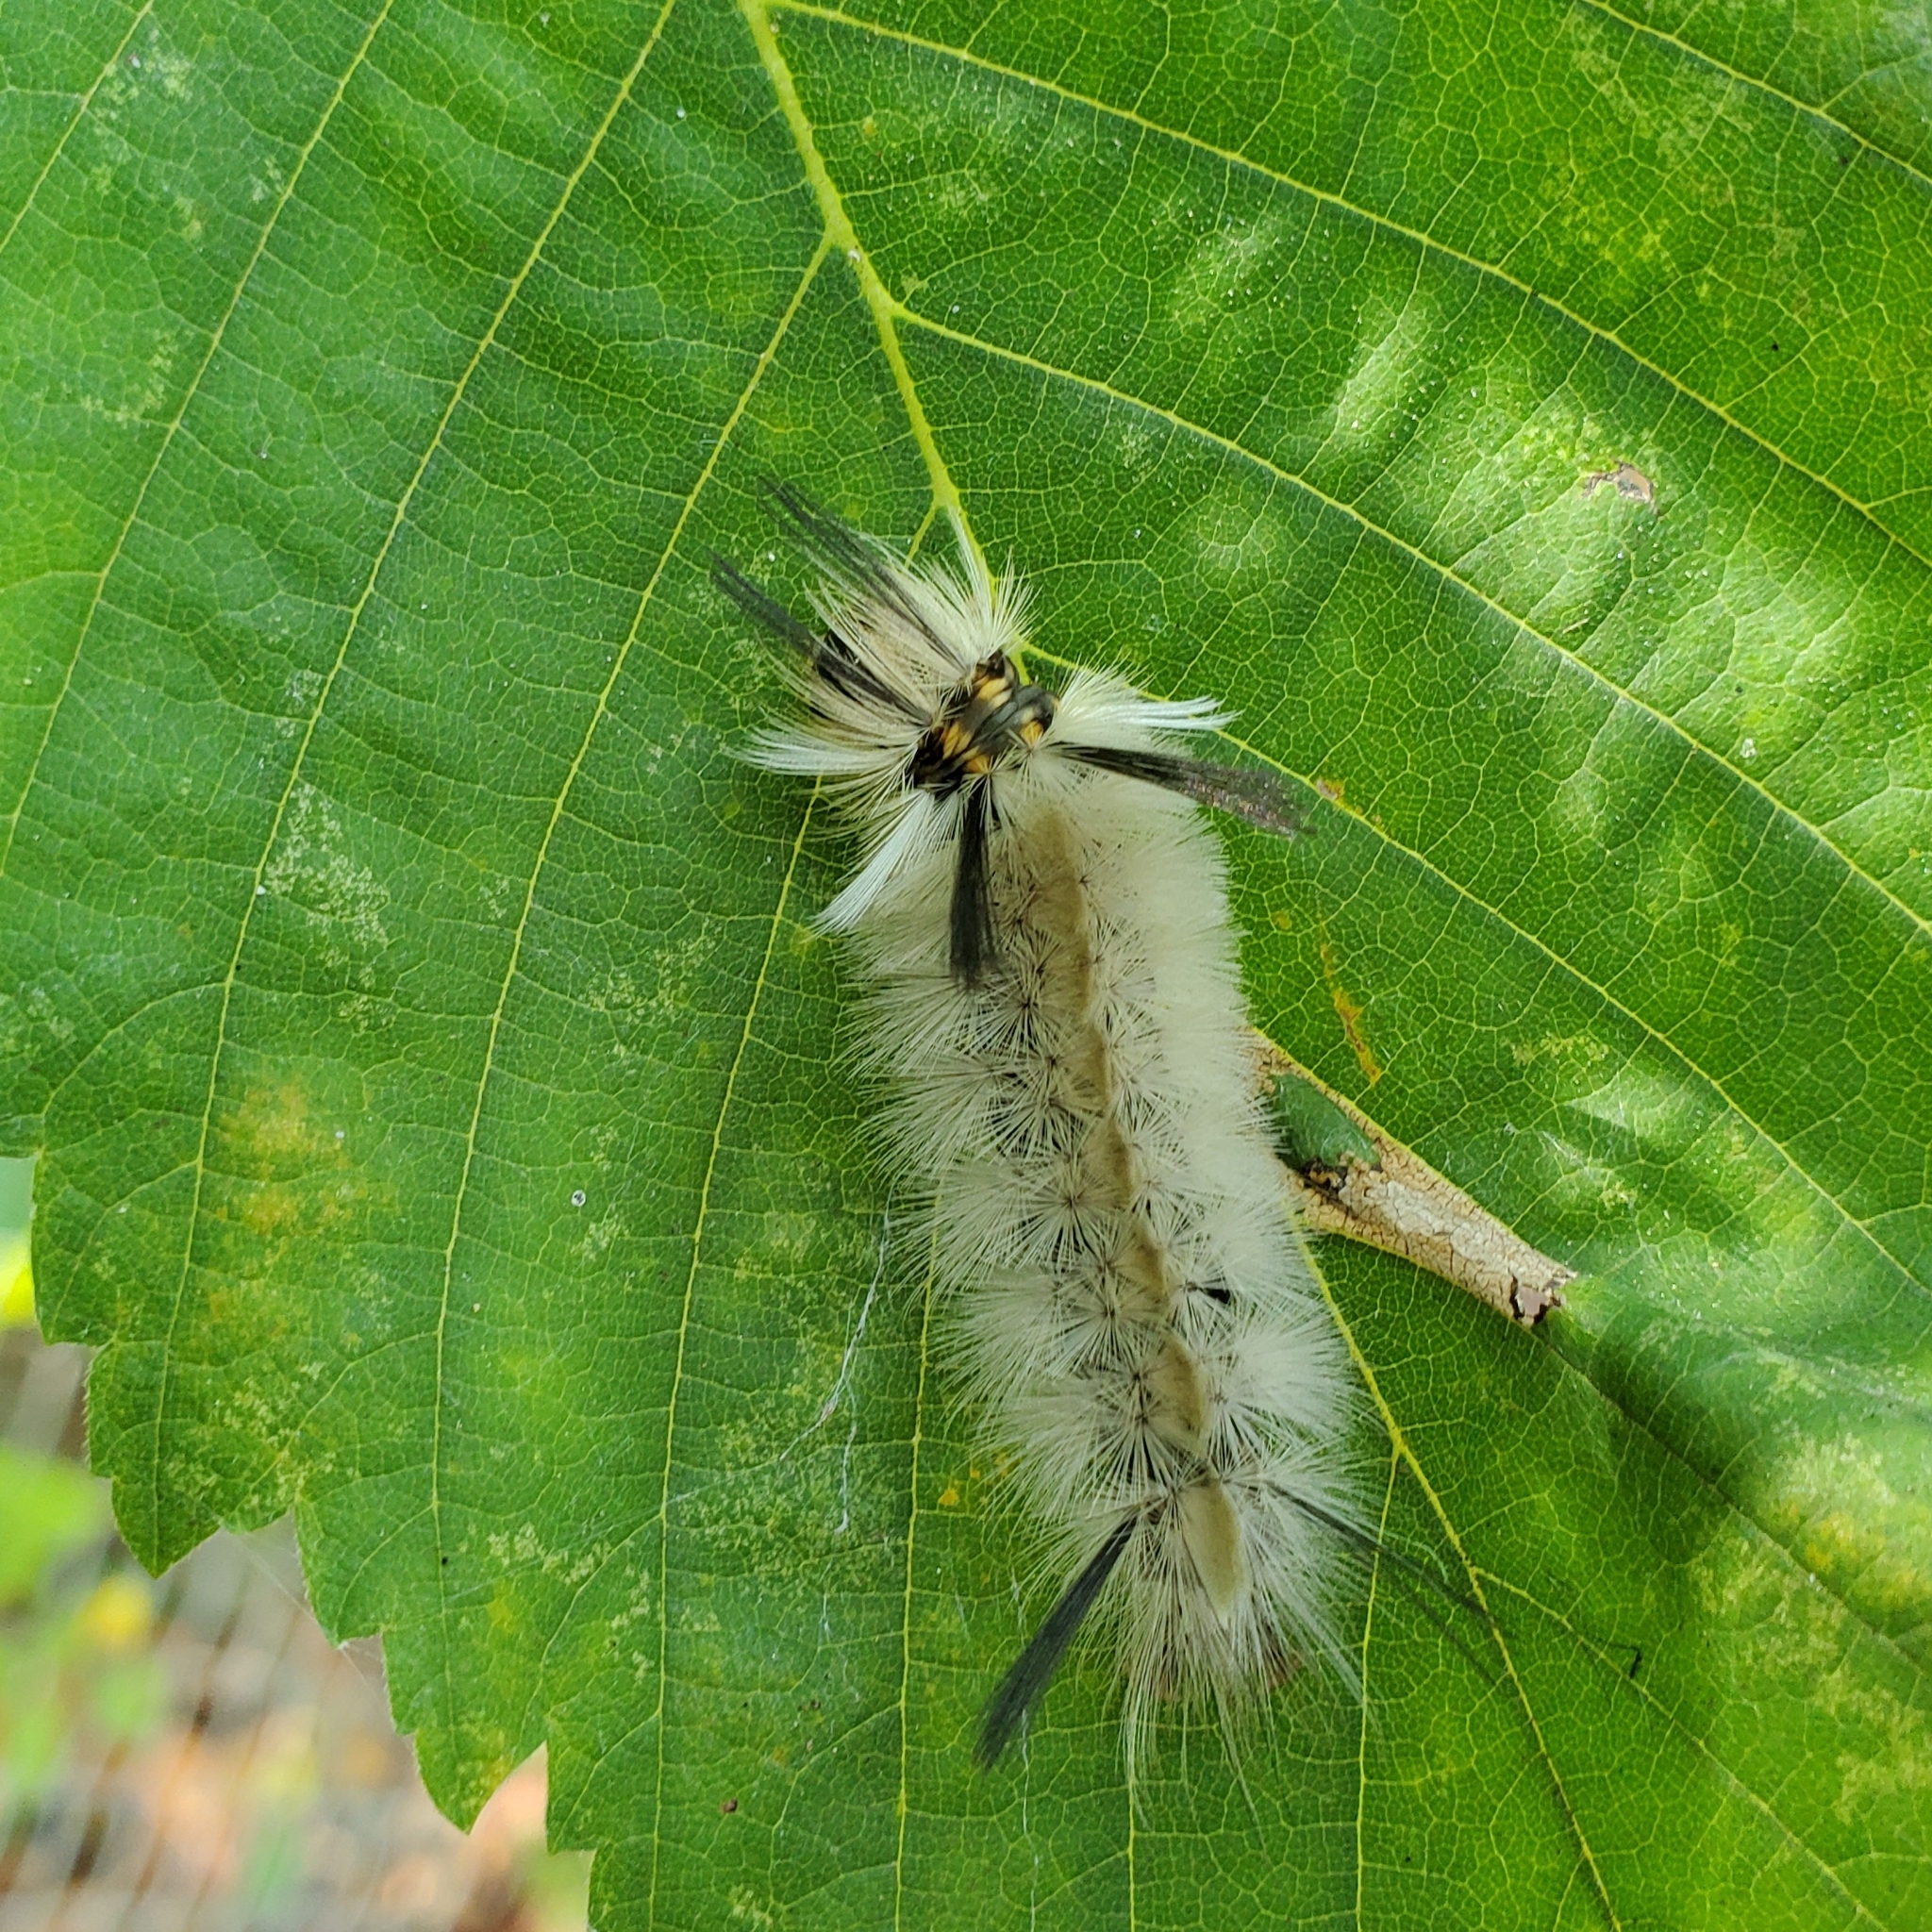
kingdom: Animalia
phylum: Arthropoda
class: Insecta
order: Lepidoptera
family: Erebidae
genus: Halysidota
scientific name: Halysidota tessellaris
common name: Banded tussock moth
